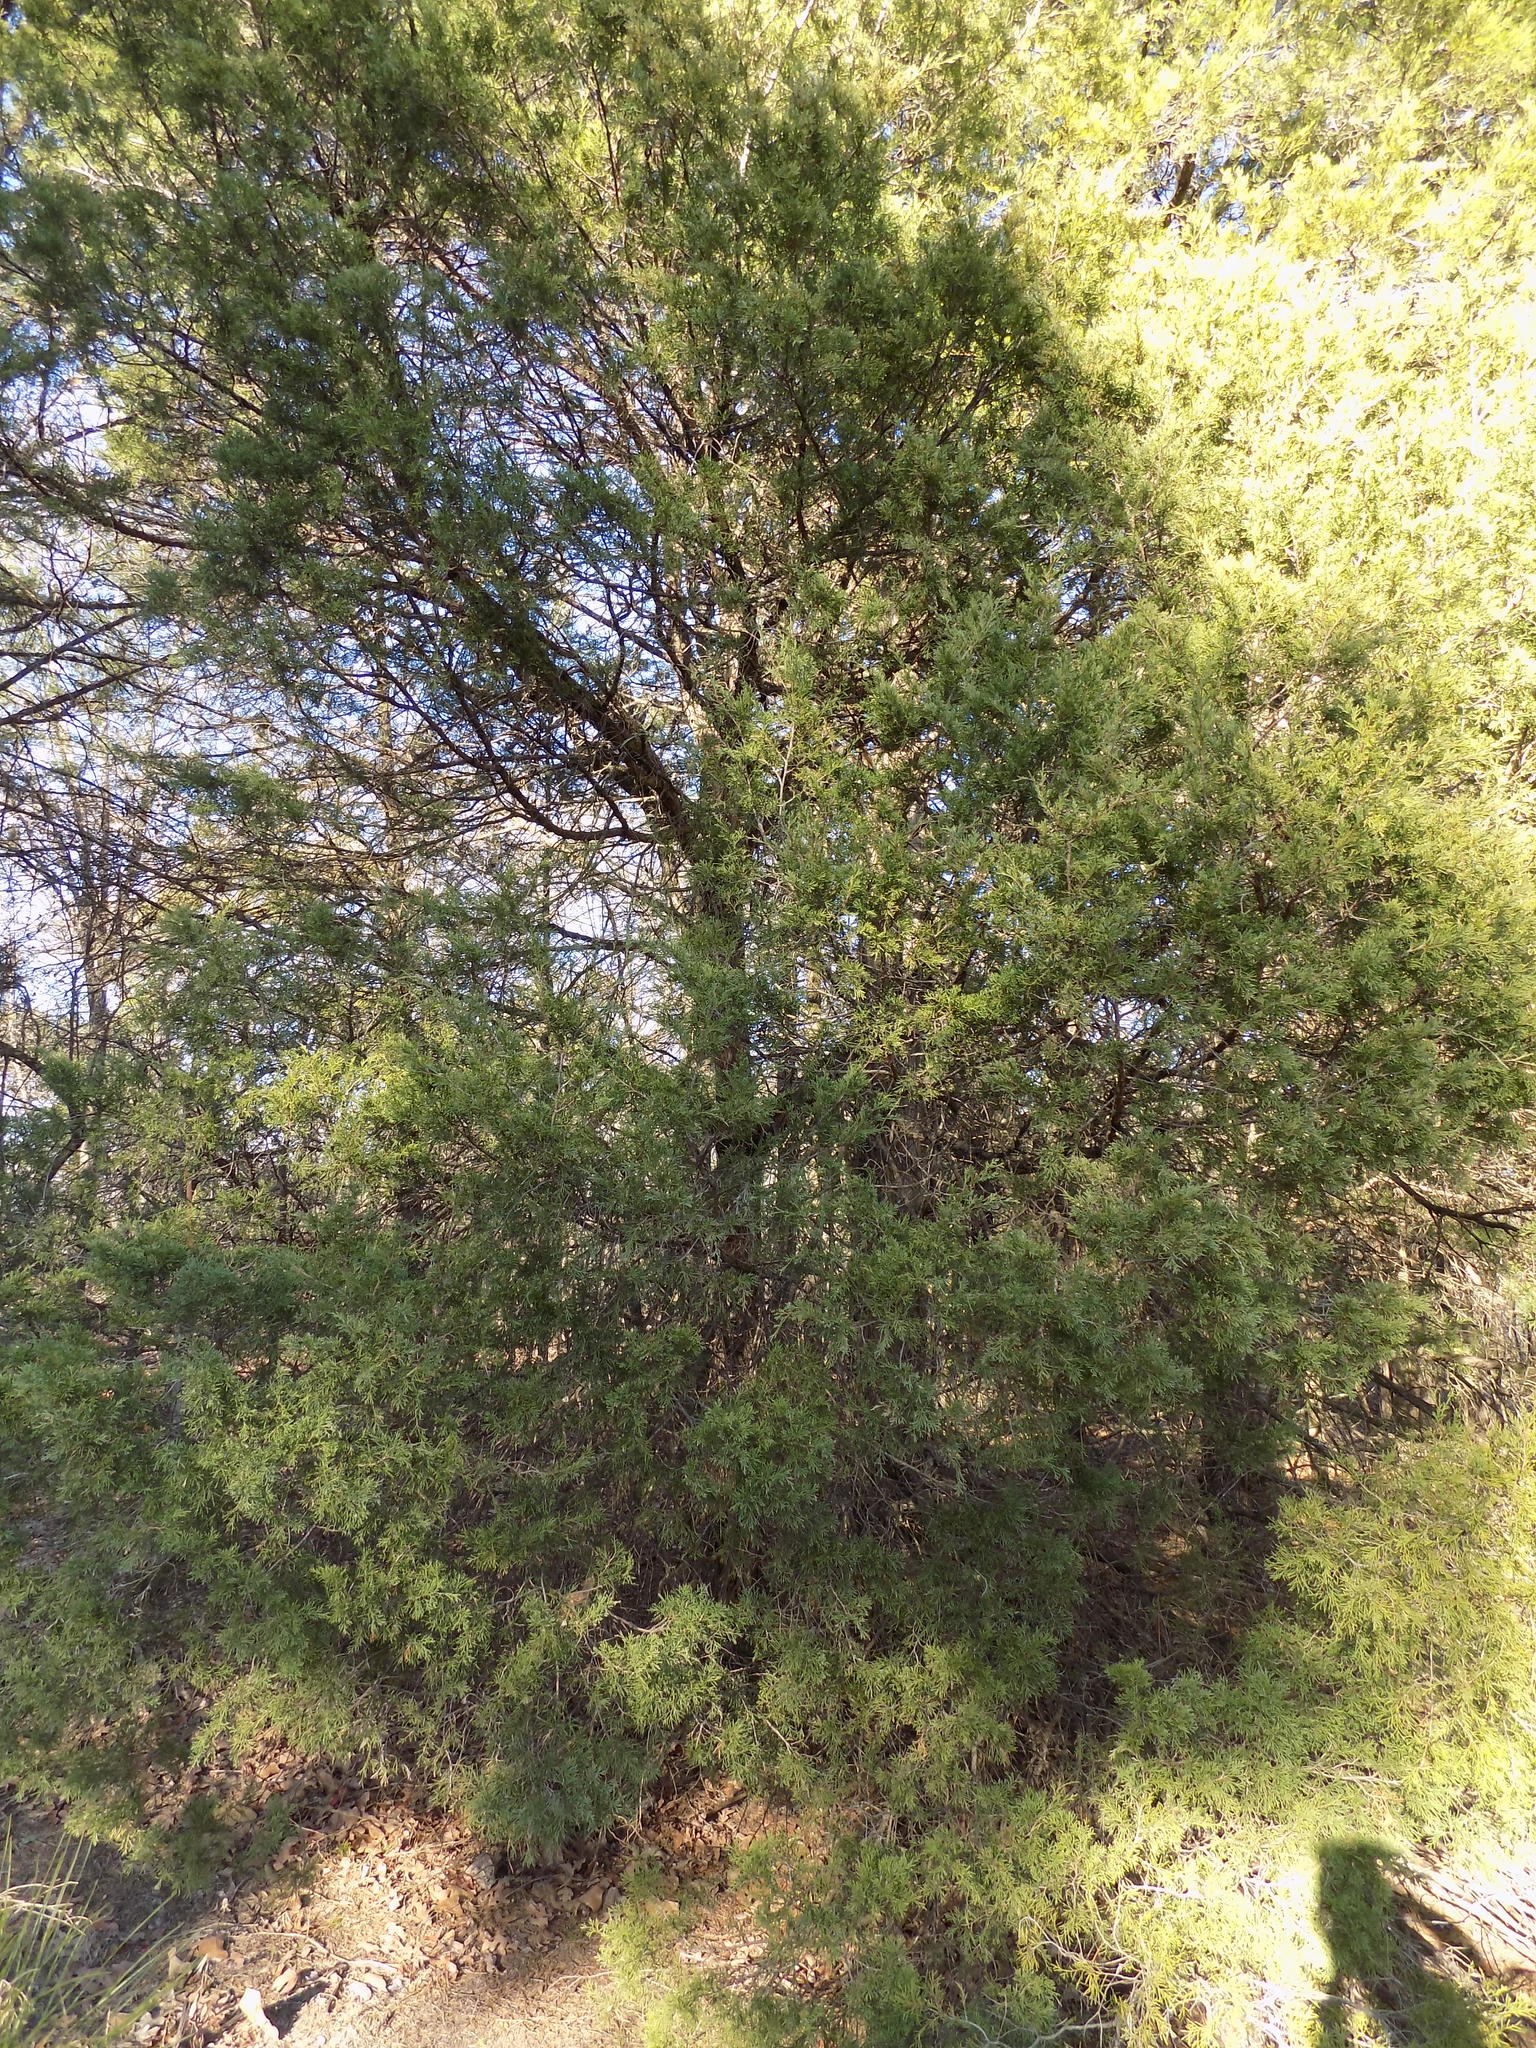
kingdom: Plantae
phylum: Tracheophyta
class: Pinopsida
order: Pinales
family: Cupressaceae
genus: Juniperus
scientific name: Juniperus virginiana
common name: Red juniper
